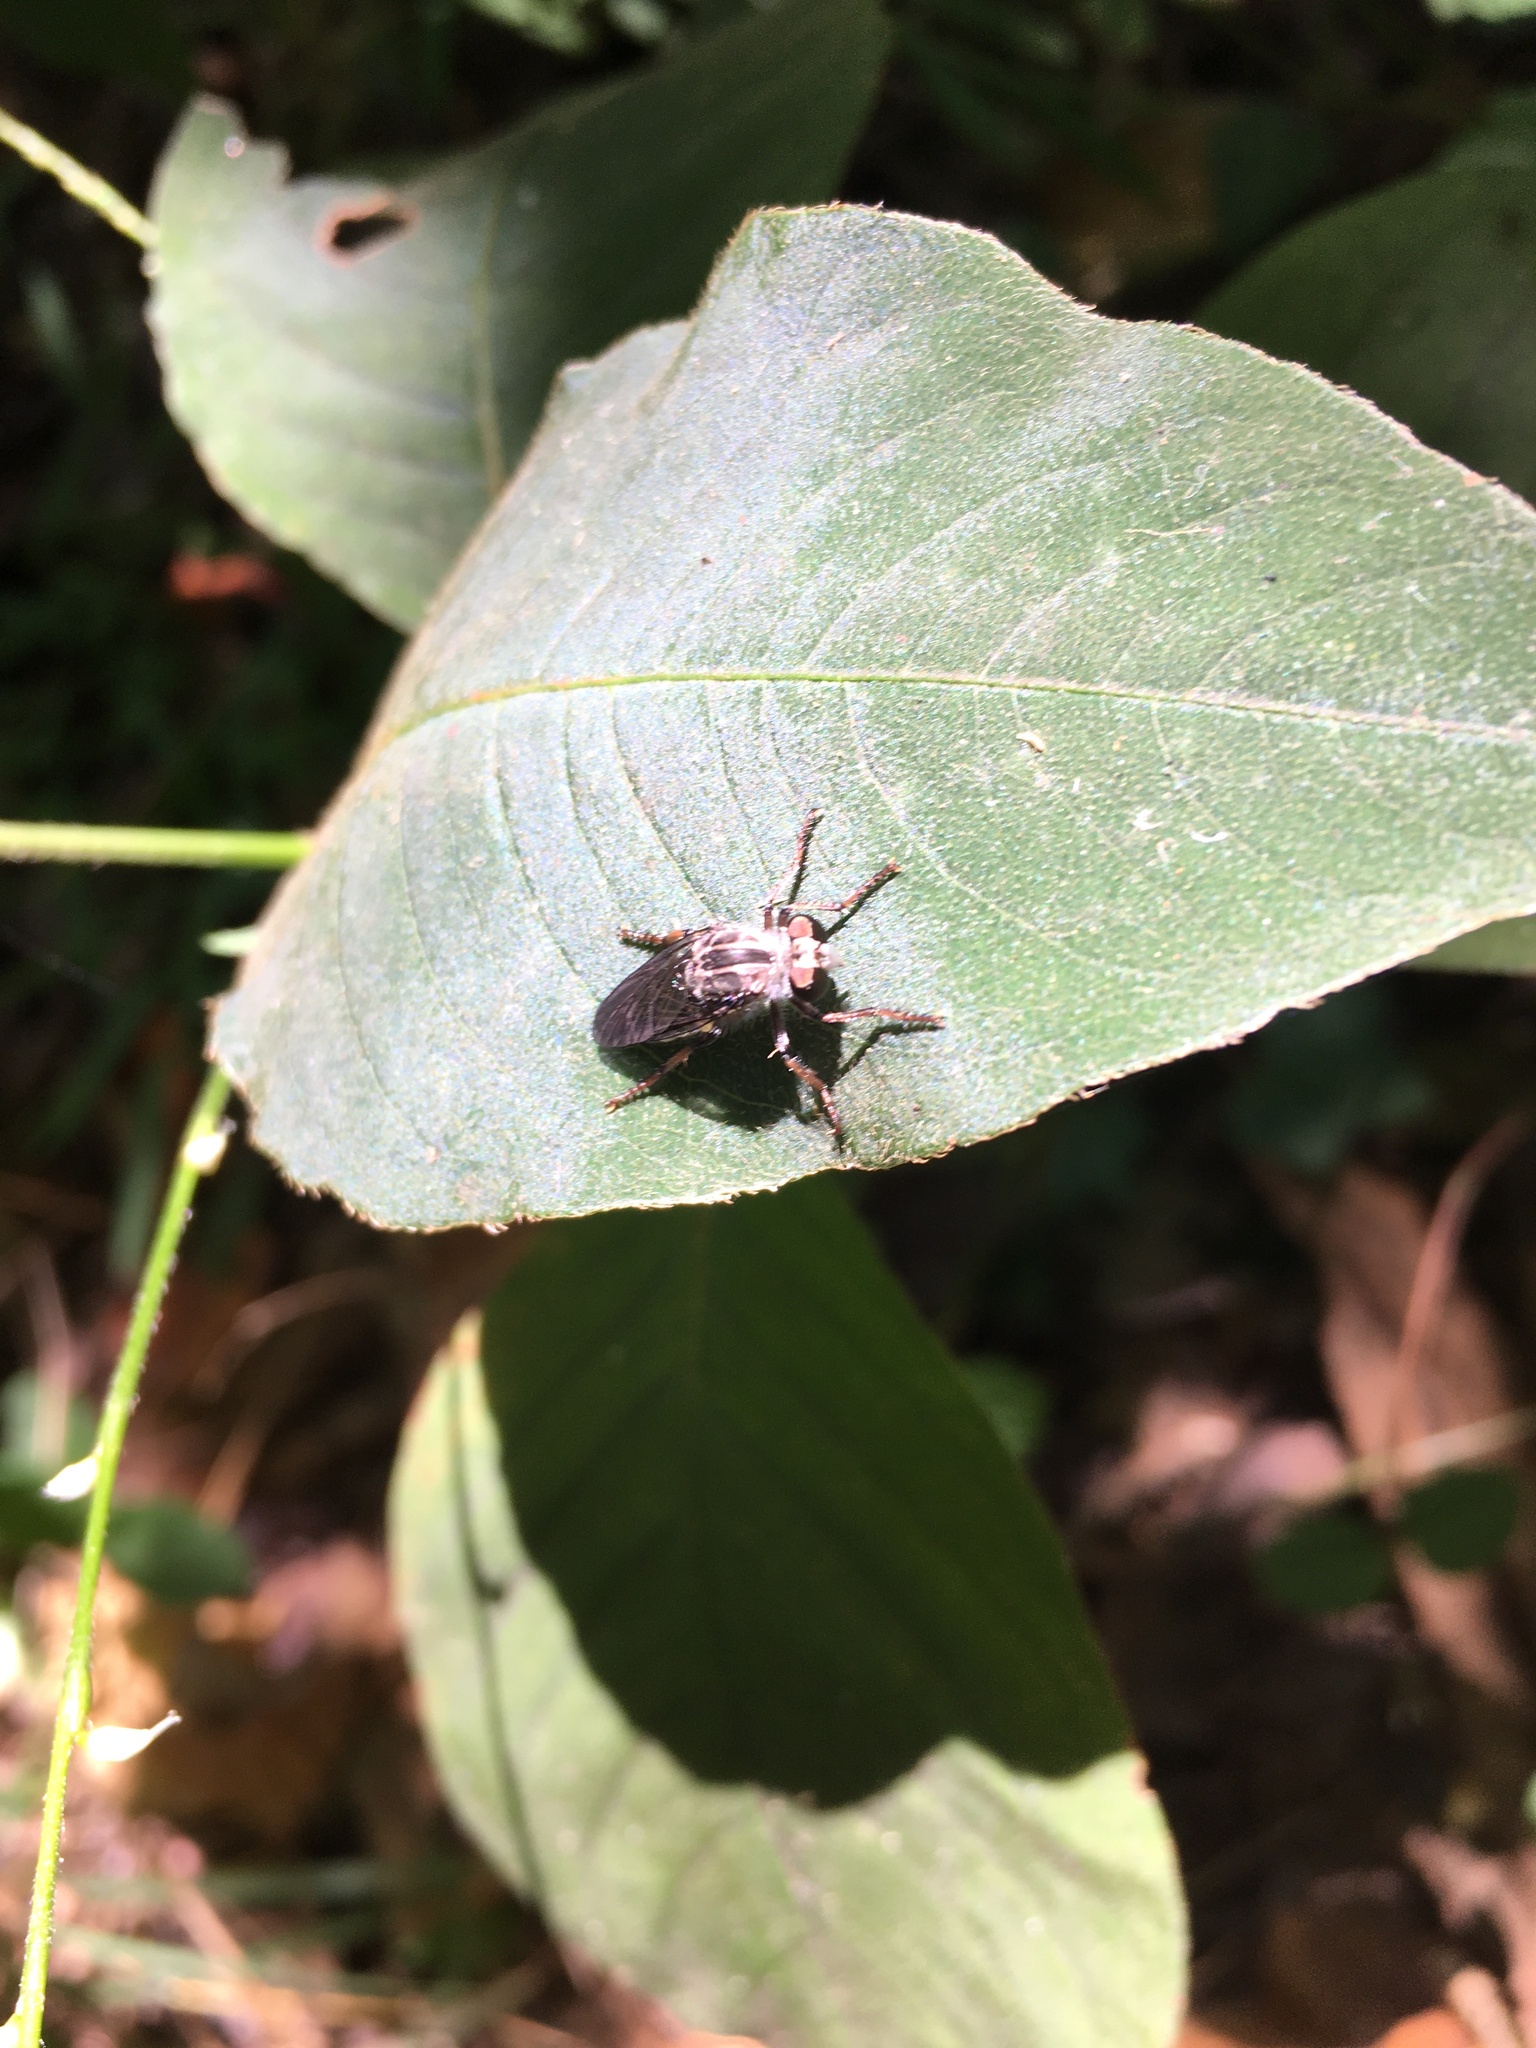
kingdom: Animalia
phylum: Arthropoda
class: Insecta
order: Diptera
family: Asilidae
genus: Heteropogon
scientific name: Heteropogon macerinus
